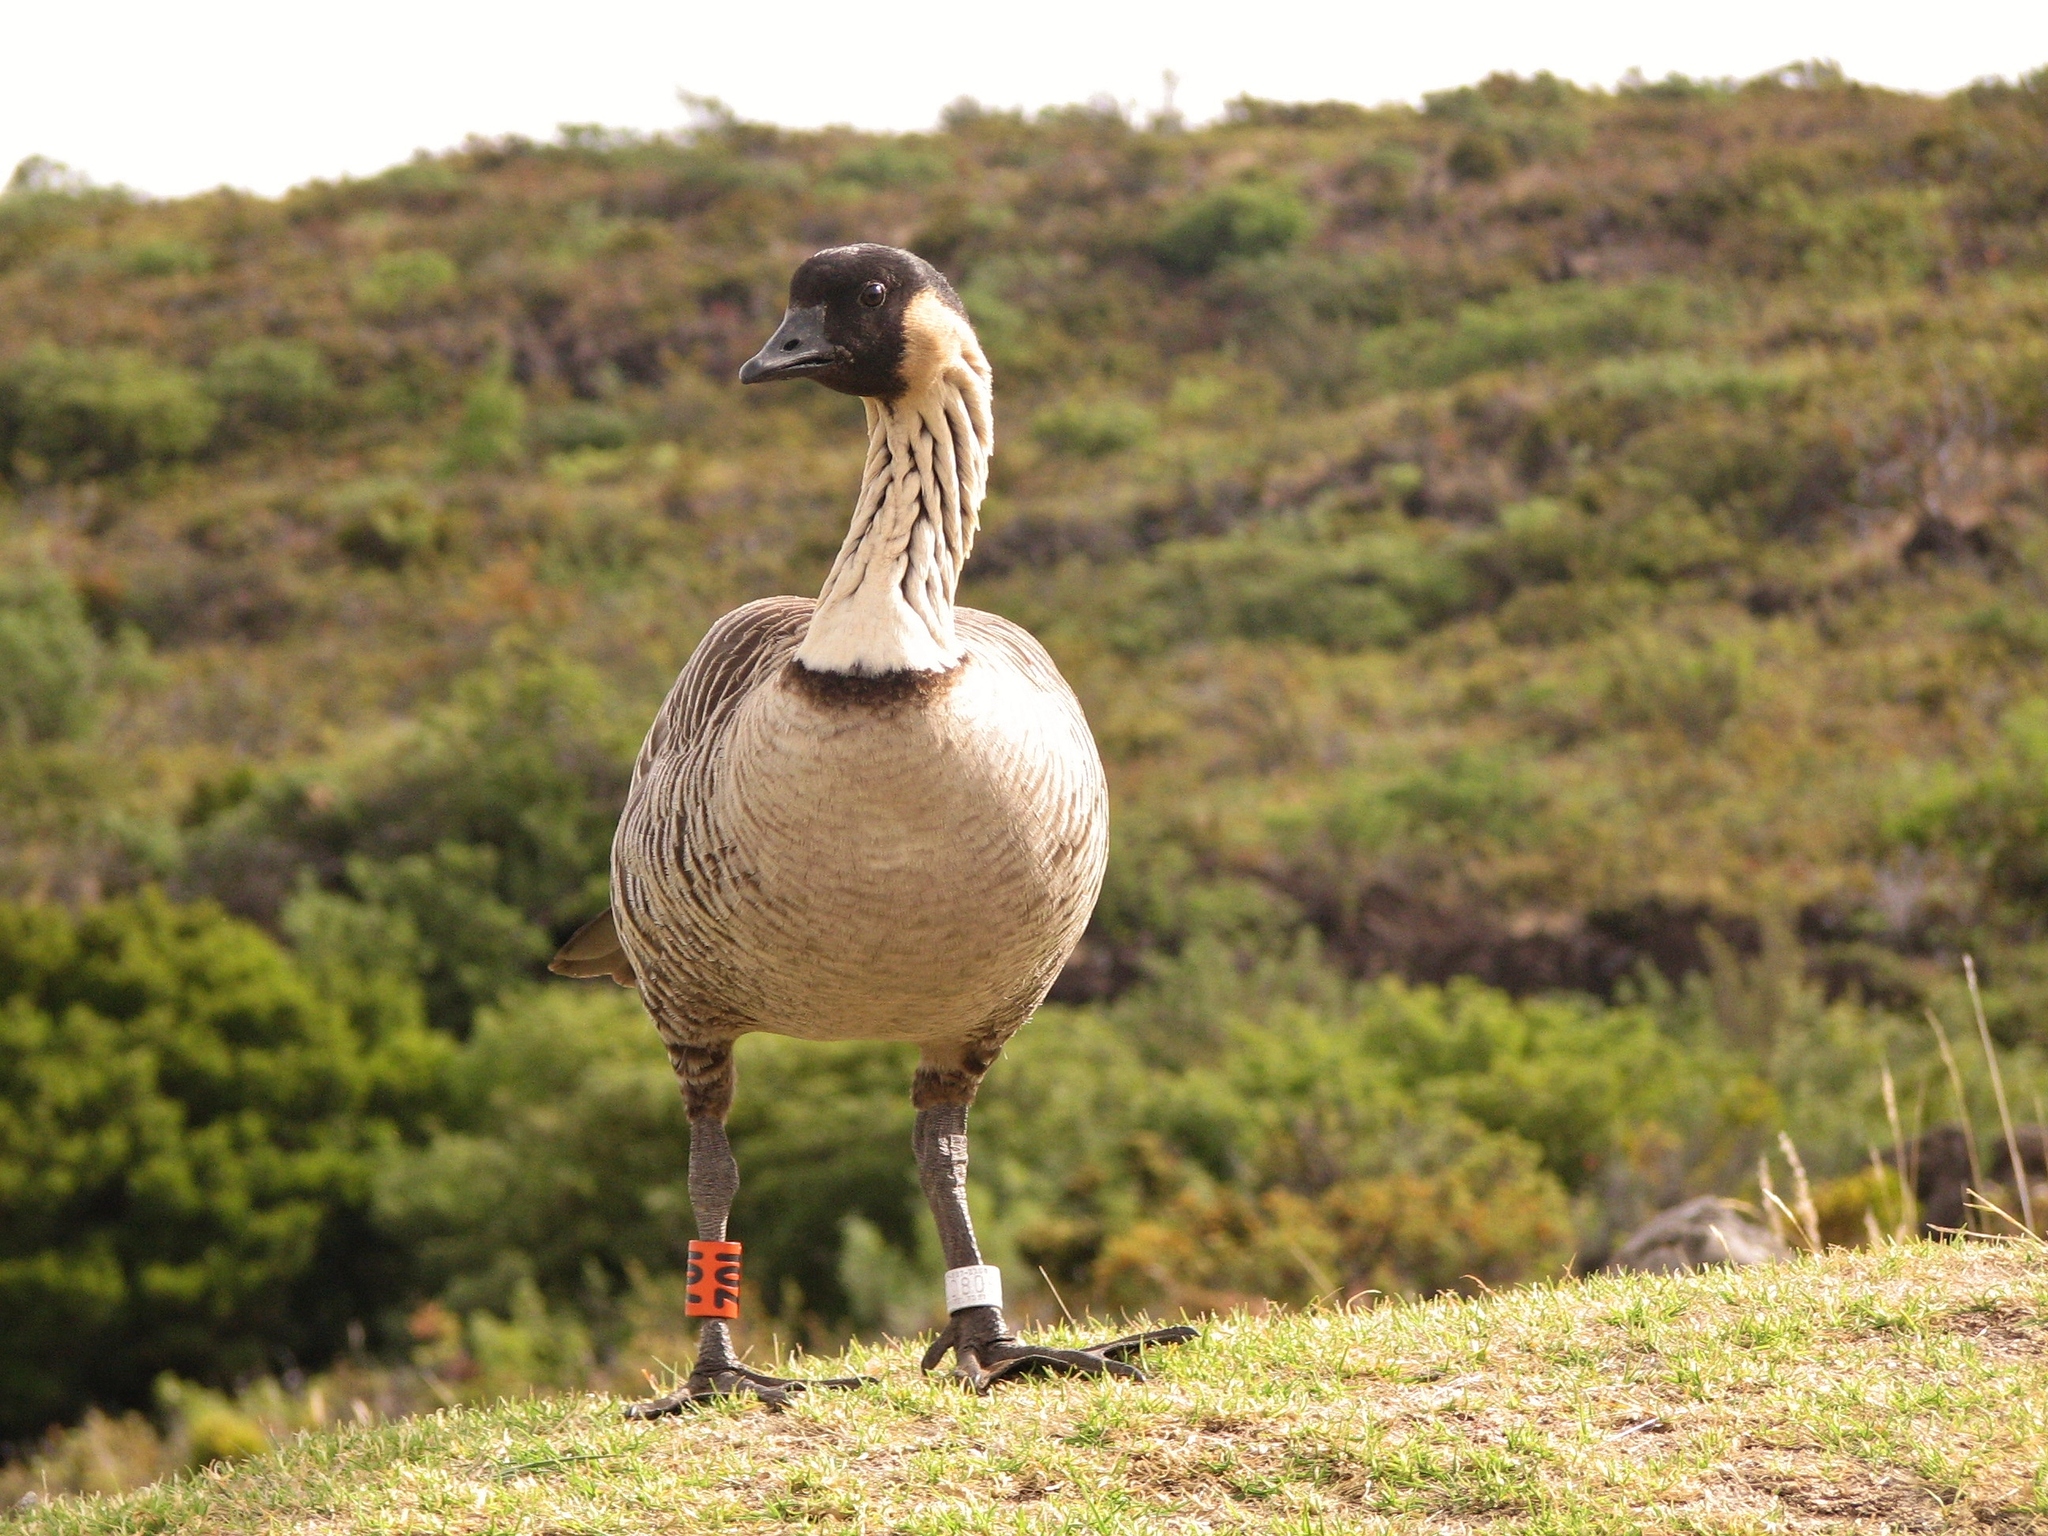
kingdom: Animalia
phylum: Chordata
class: Aves
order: Anseriformes
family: Anatidae
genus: Branta
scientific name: Branta sandvicensis
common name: Nene
